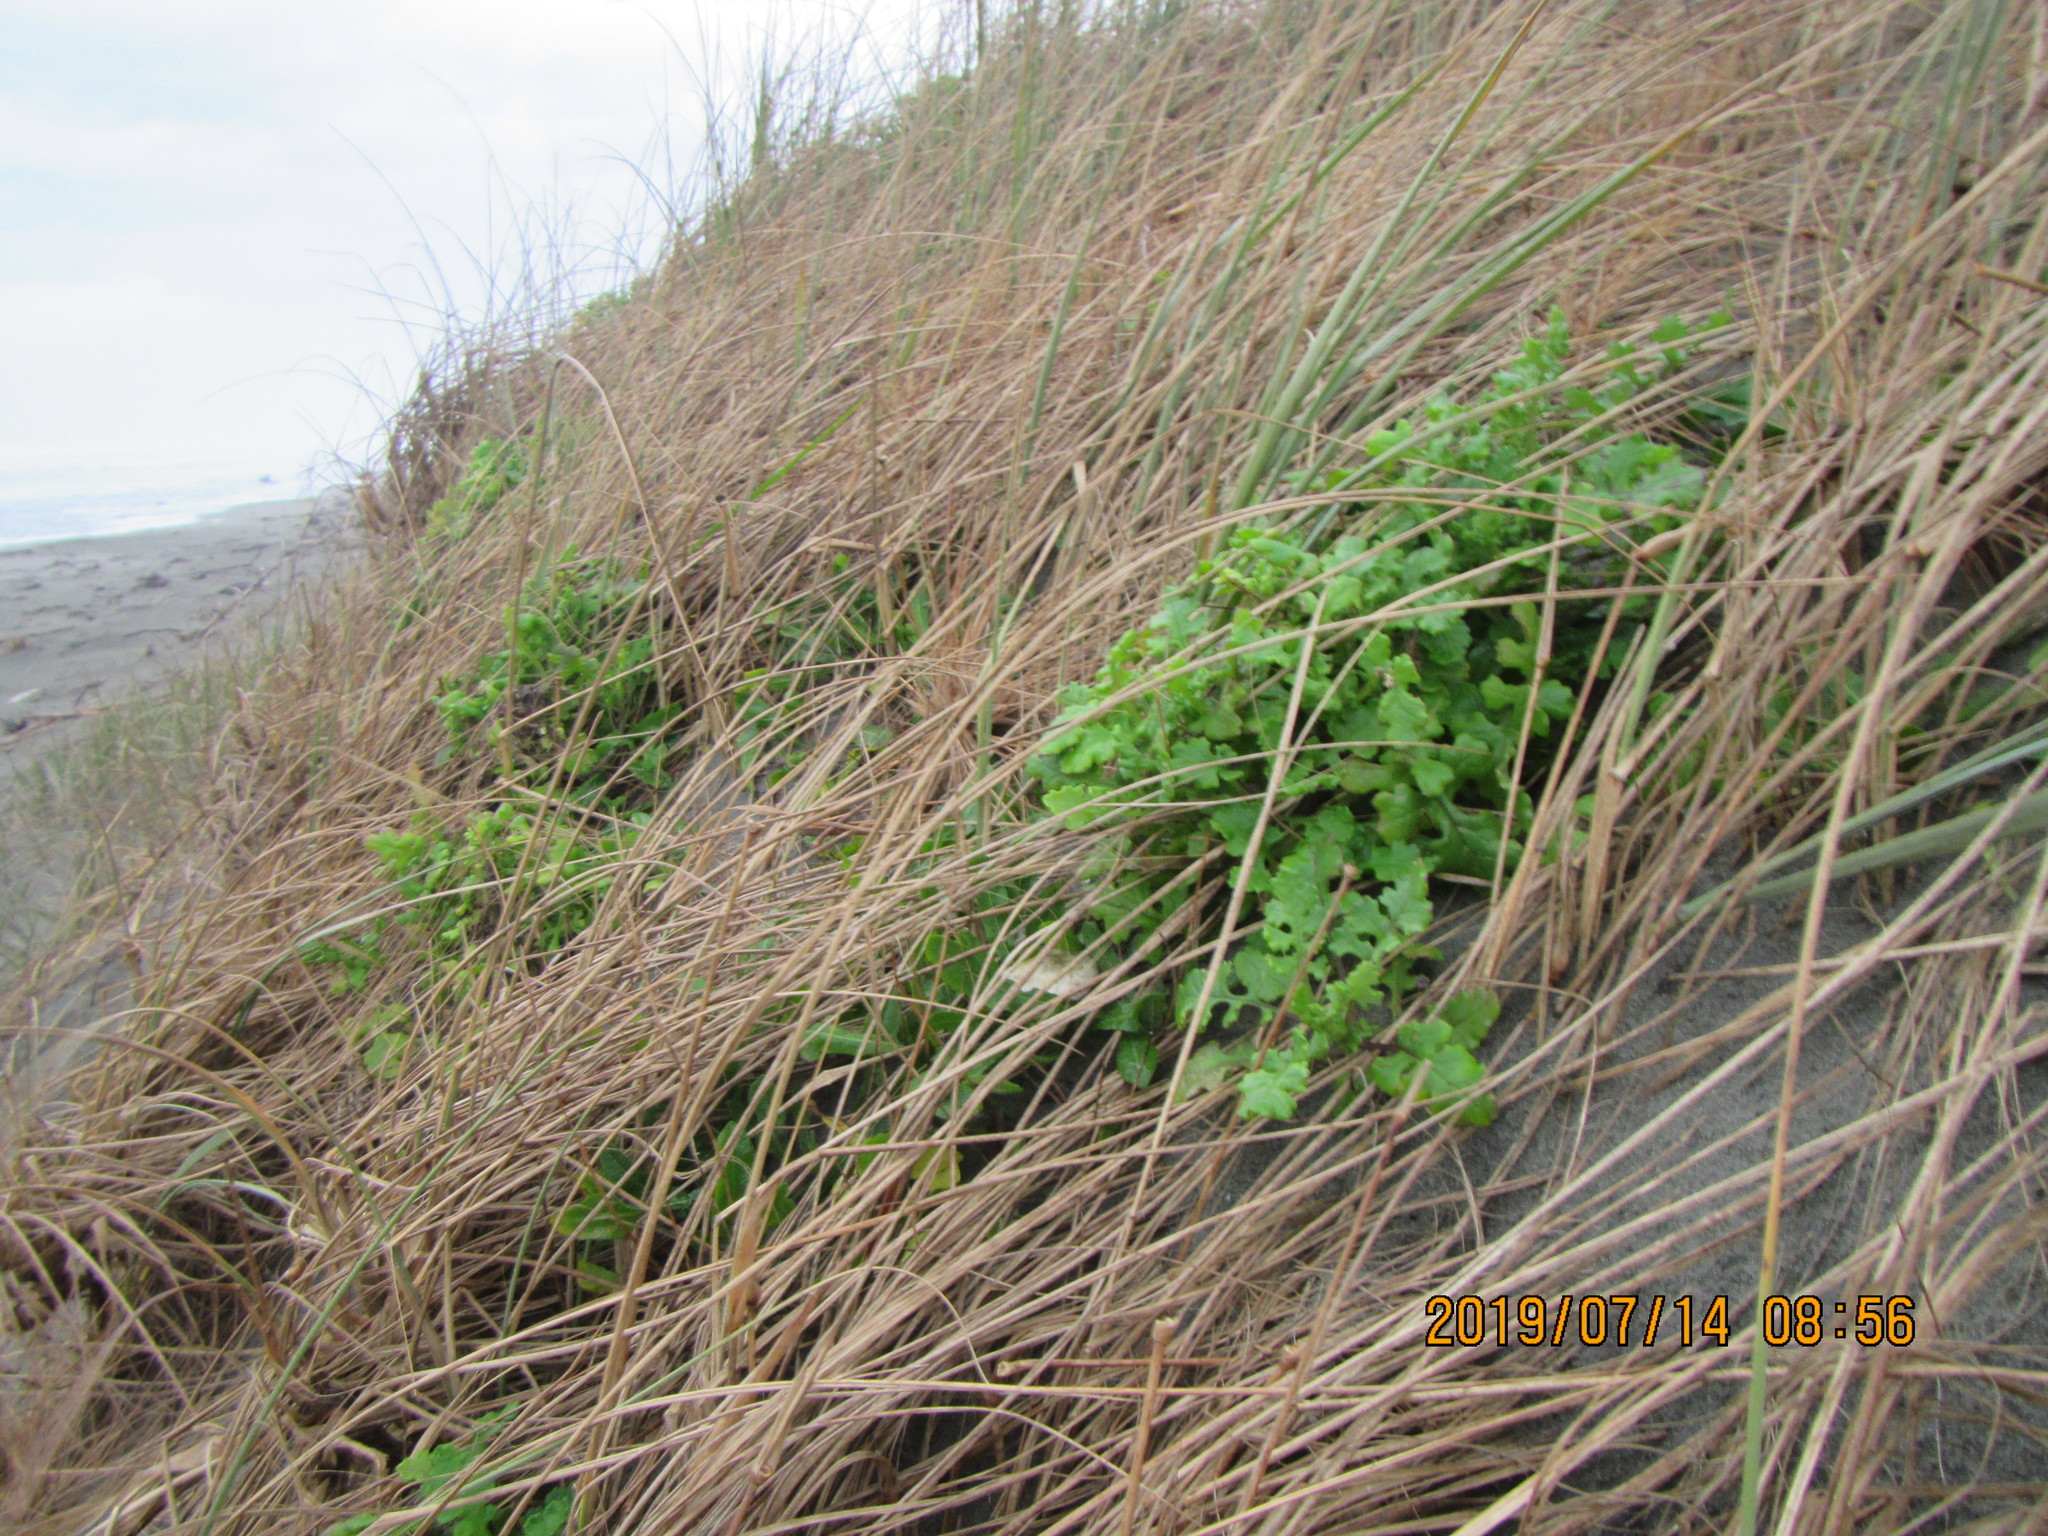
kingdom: Plantae
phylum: Tracheophyta
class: Magnoliopsida
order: Asterales
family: Asteraceae
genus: Senecio
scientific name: Senecio elegans
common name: Purple groundsel
